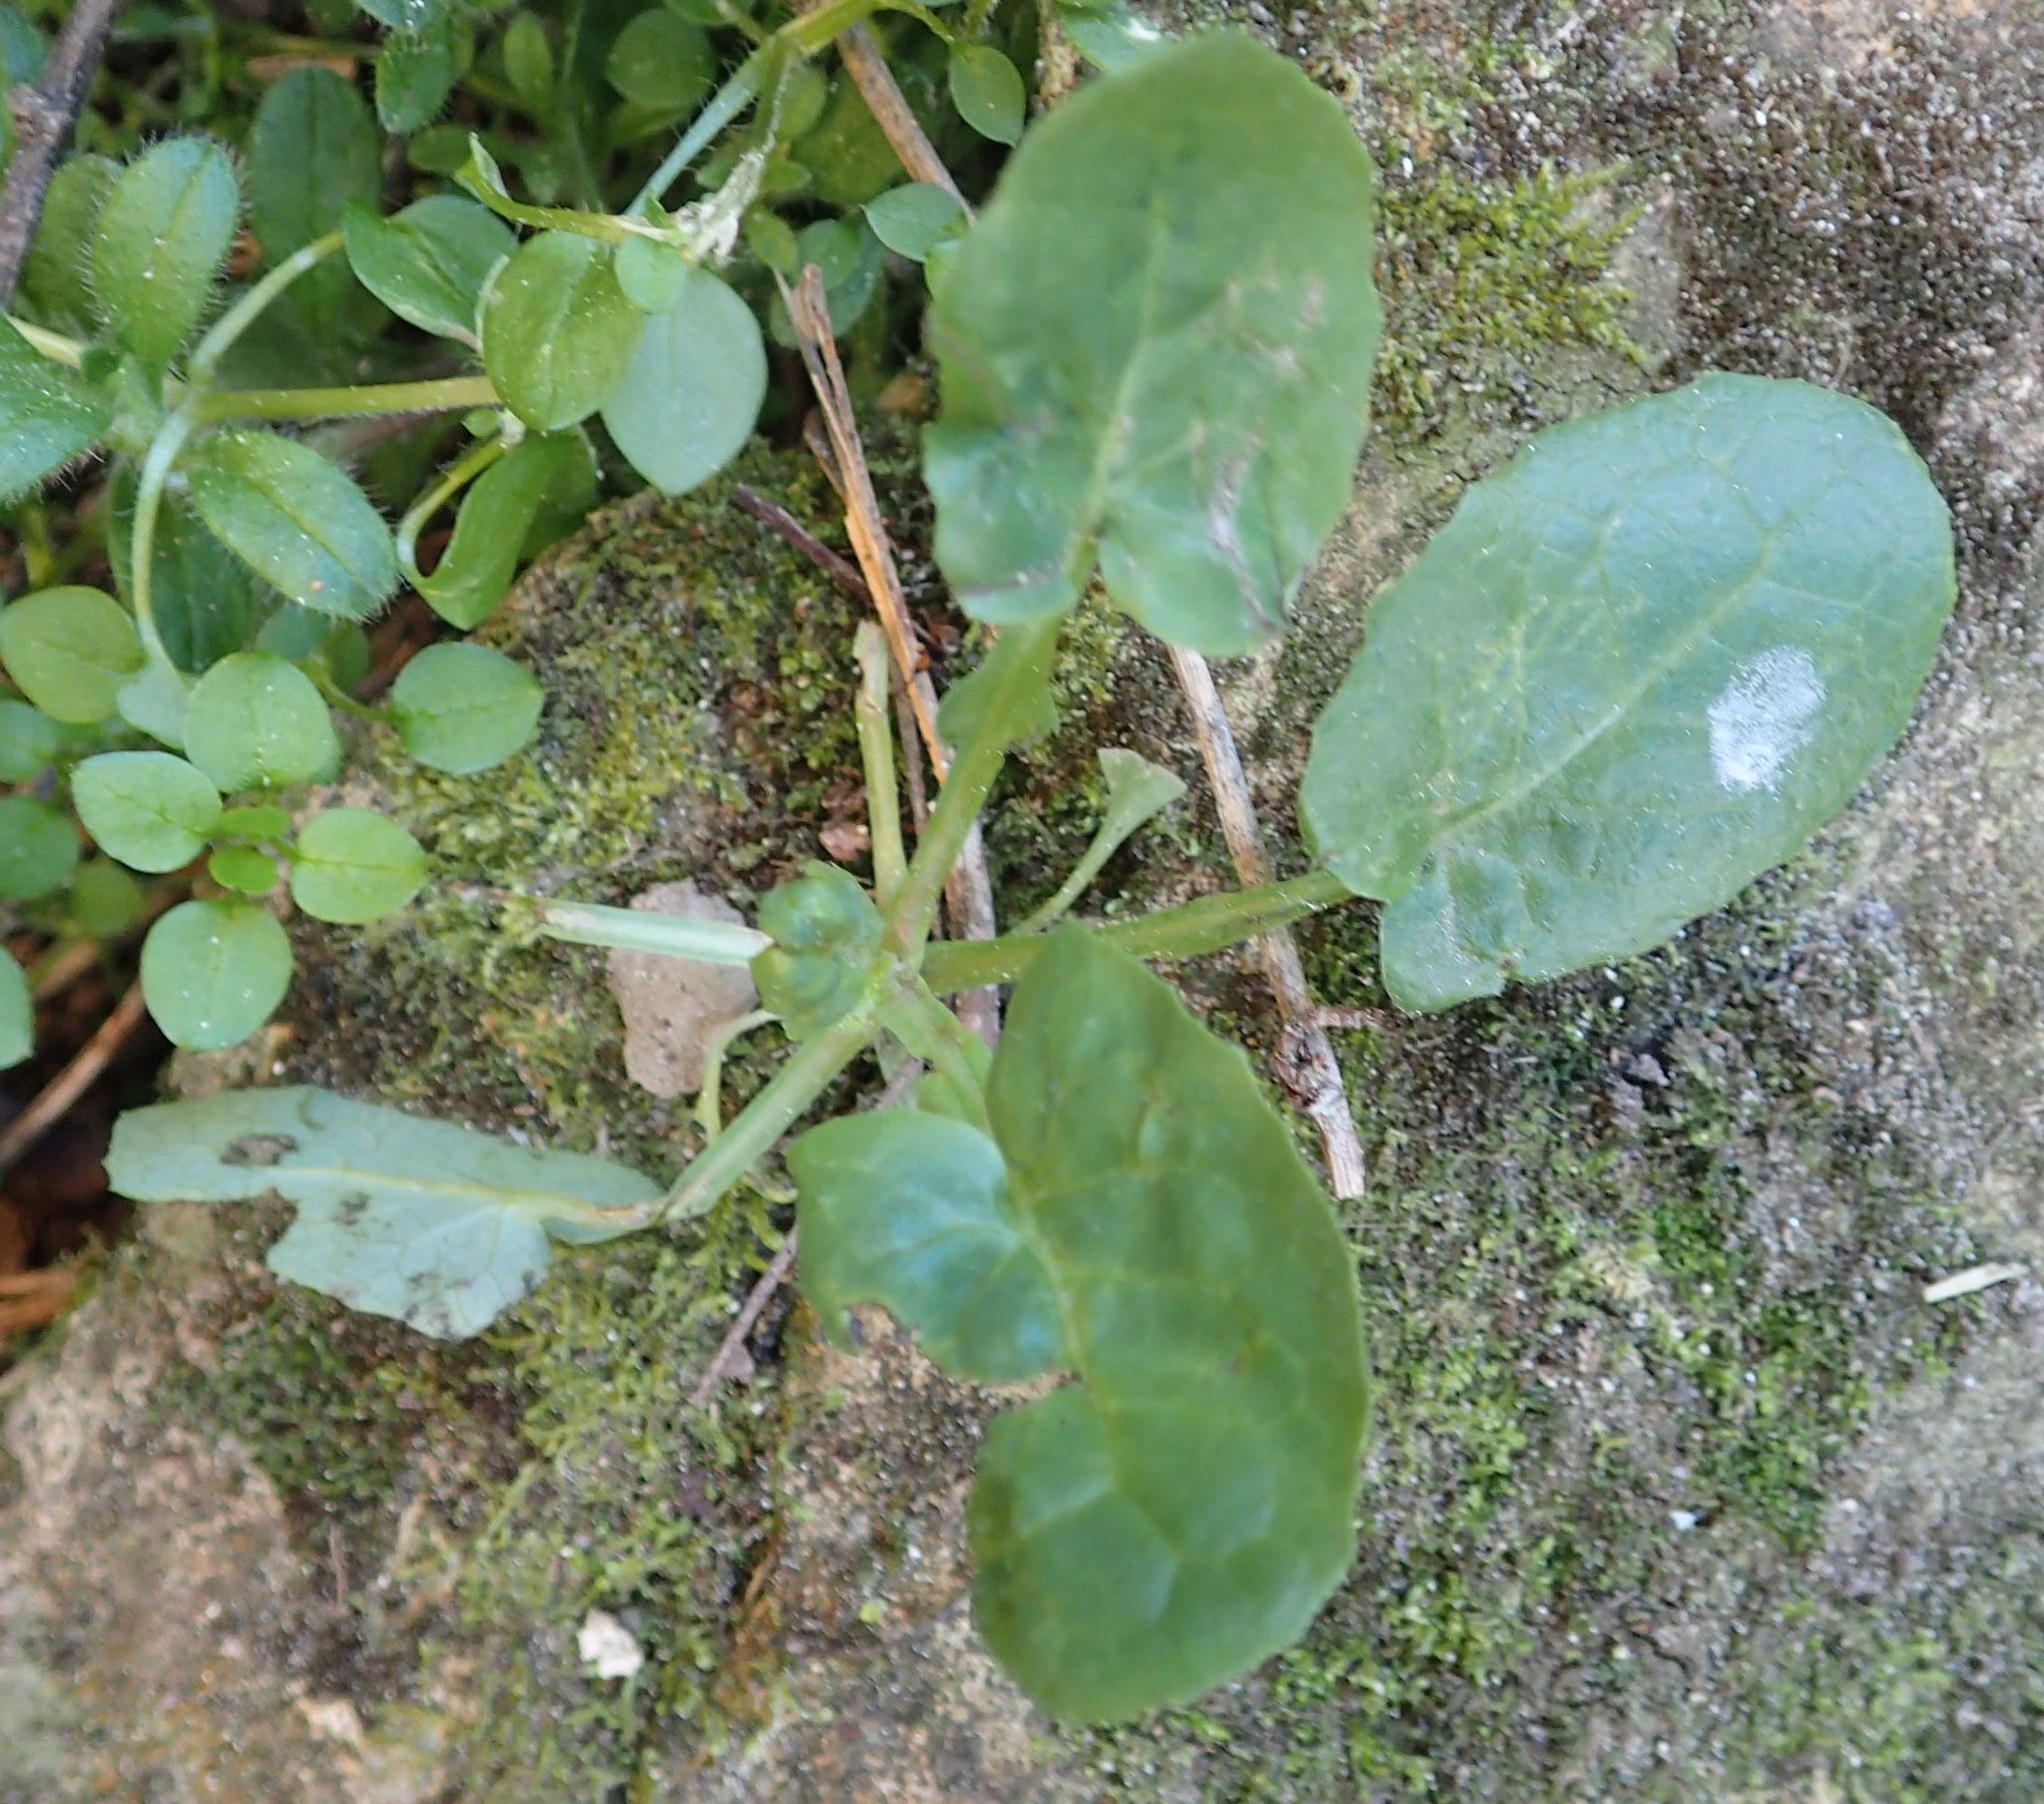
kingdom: Plantae
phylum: Tracheophyta
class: Magnoliopsida
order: Asterales
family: Asteraceae
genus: Sonchus
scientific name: Sonchus oleraceus
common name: Common sowthistle
